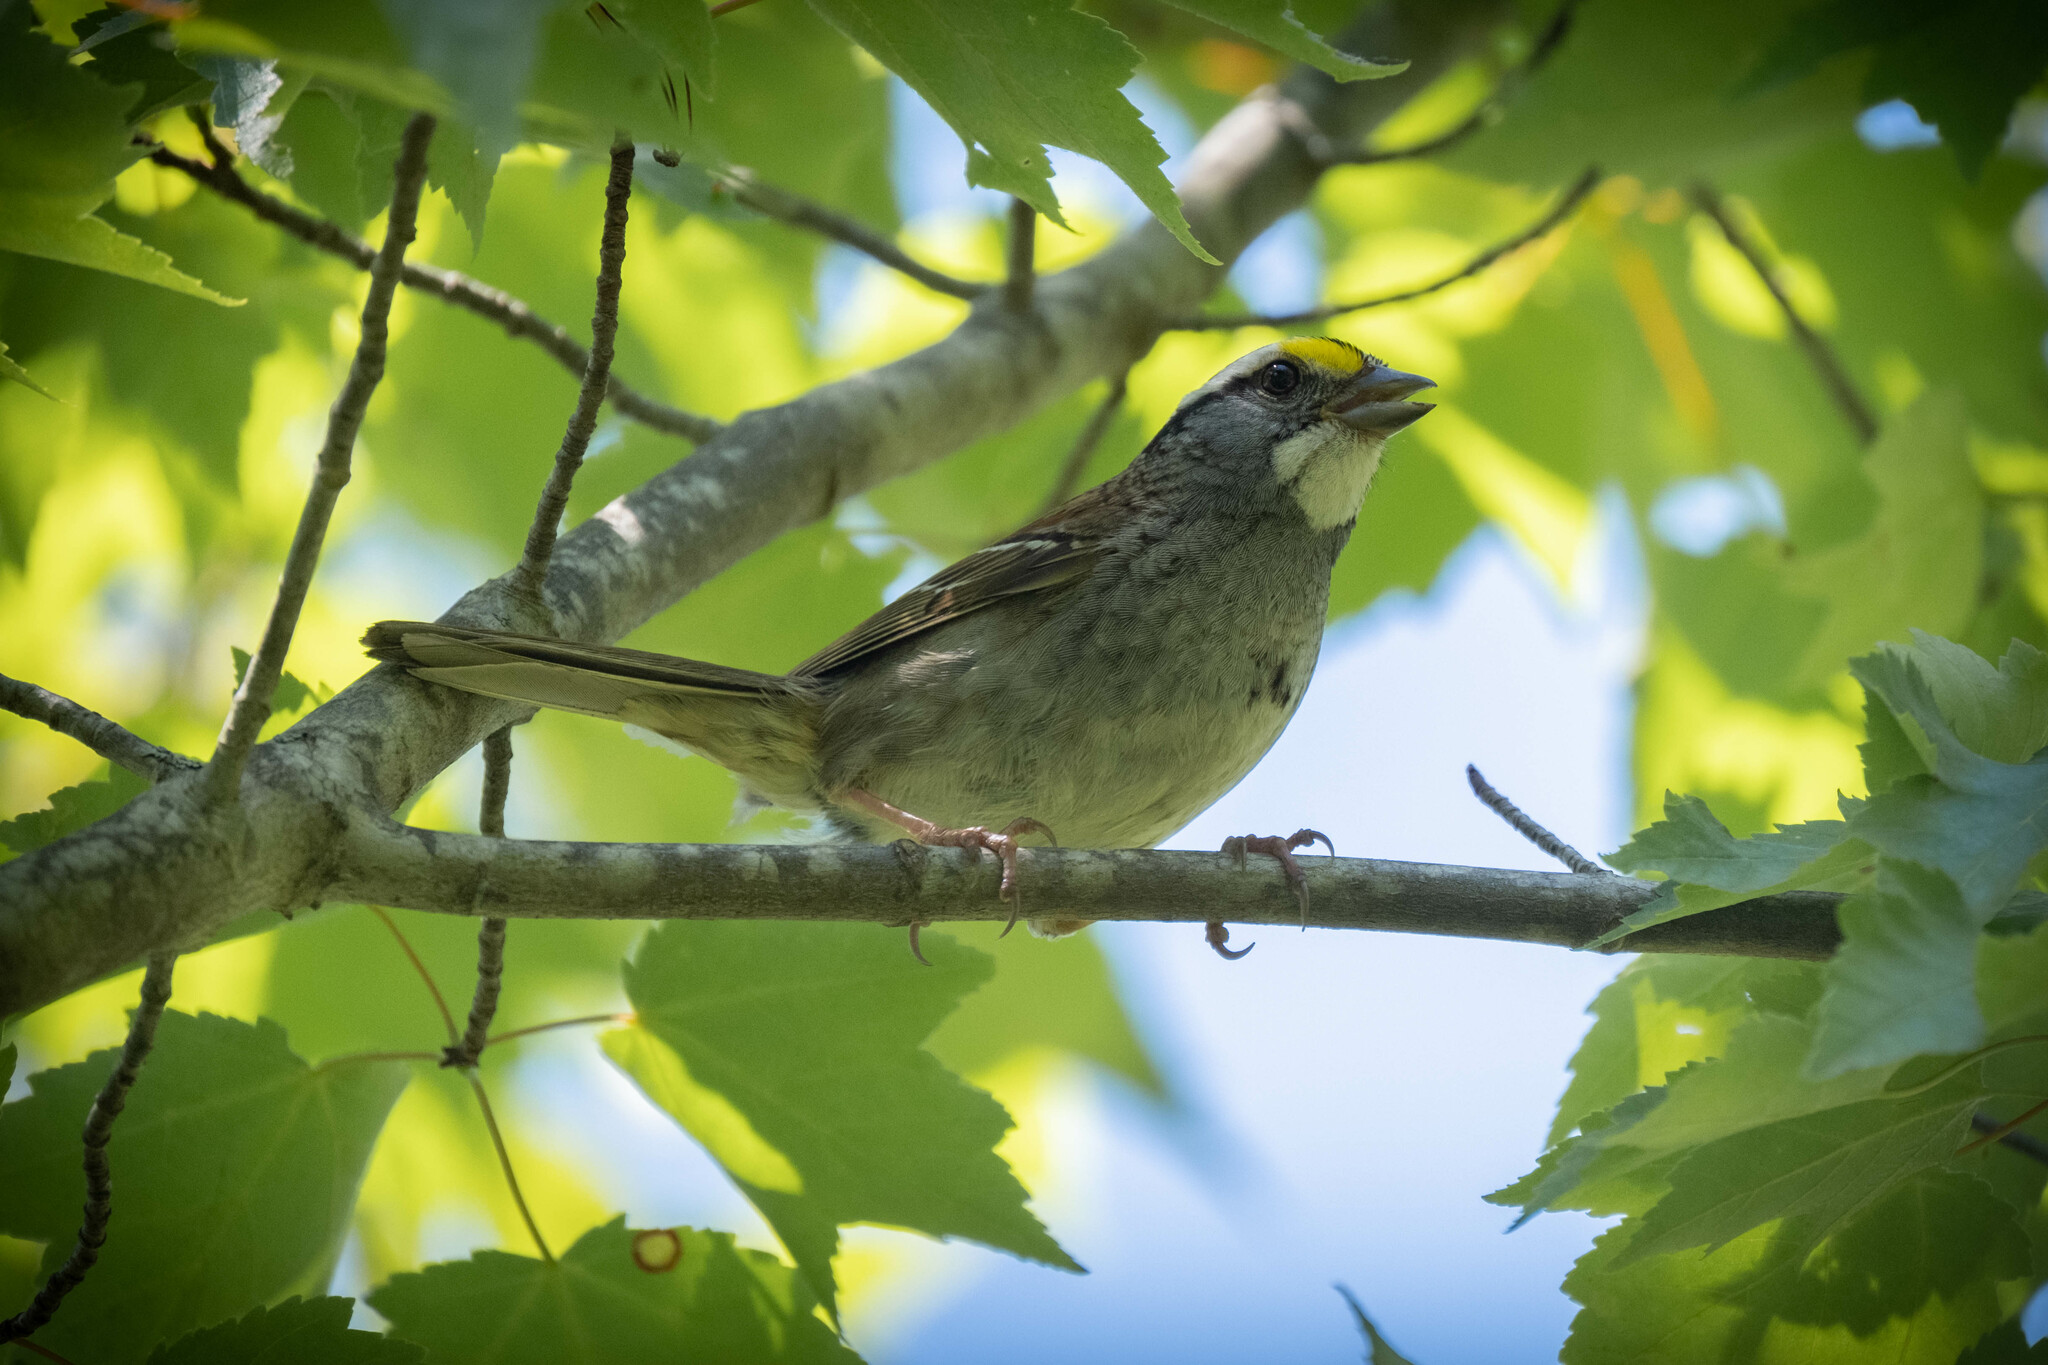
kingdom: Animalia
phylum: Chordata
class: Aves
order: Passeriformes
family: Passerellidae
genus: Zonotrichia
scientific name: Zonotrichia albicollis
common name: White-throated sparrow
